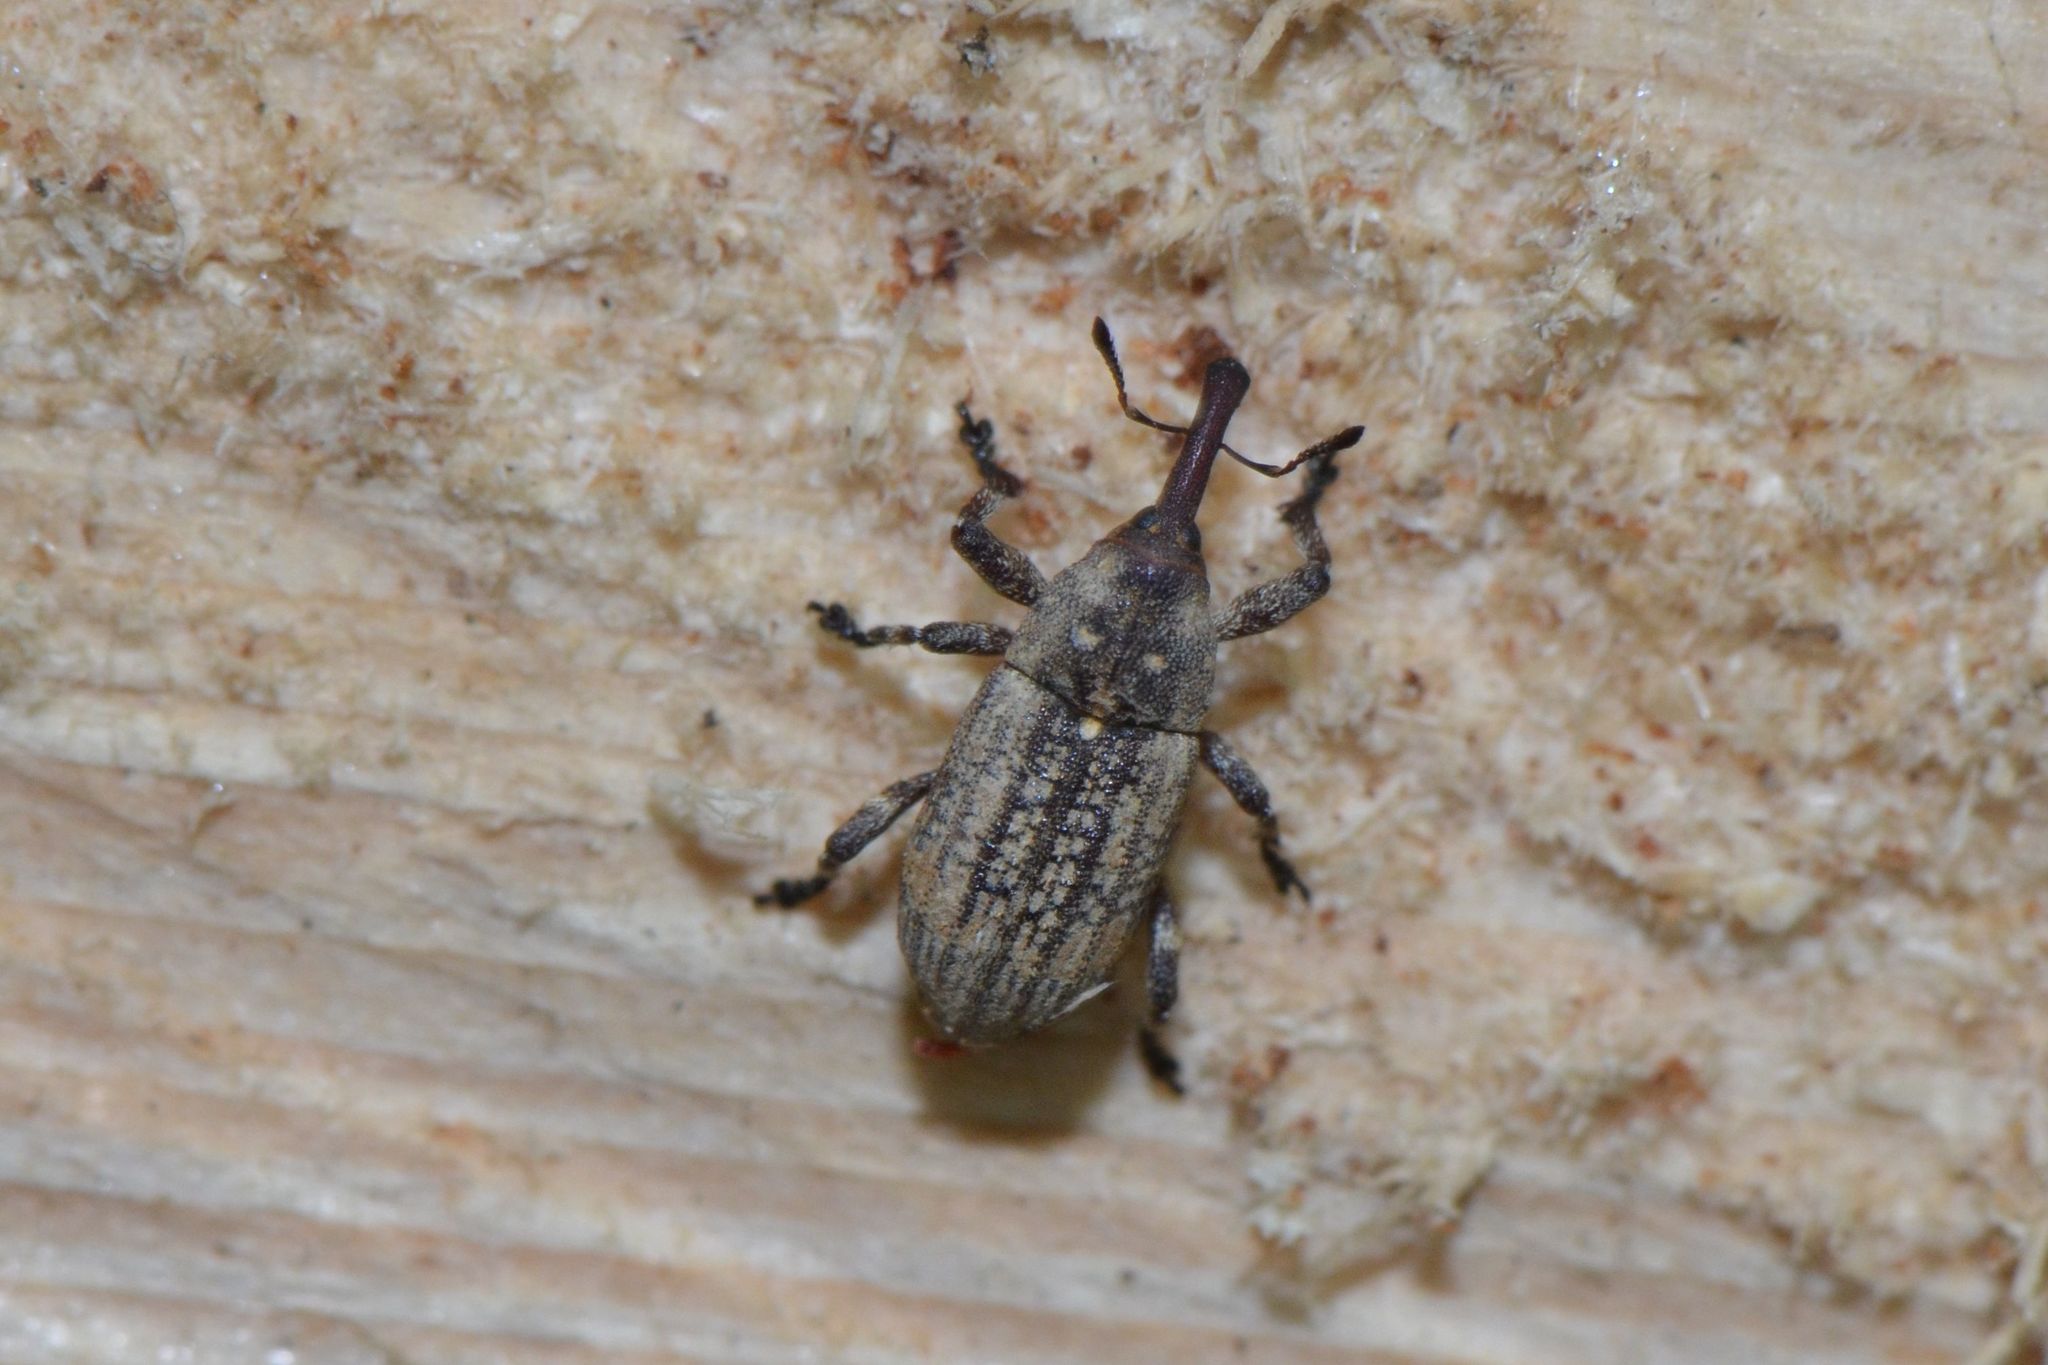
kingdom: Animalia
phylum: Arthropoda
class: Insecta
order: Coleoptera
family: Curculionidae
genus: Pissodes
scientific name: Pissodes piceae
